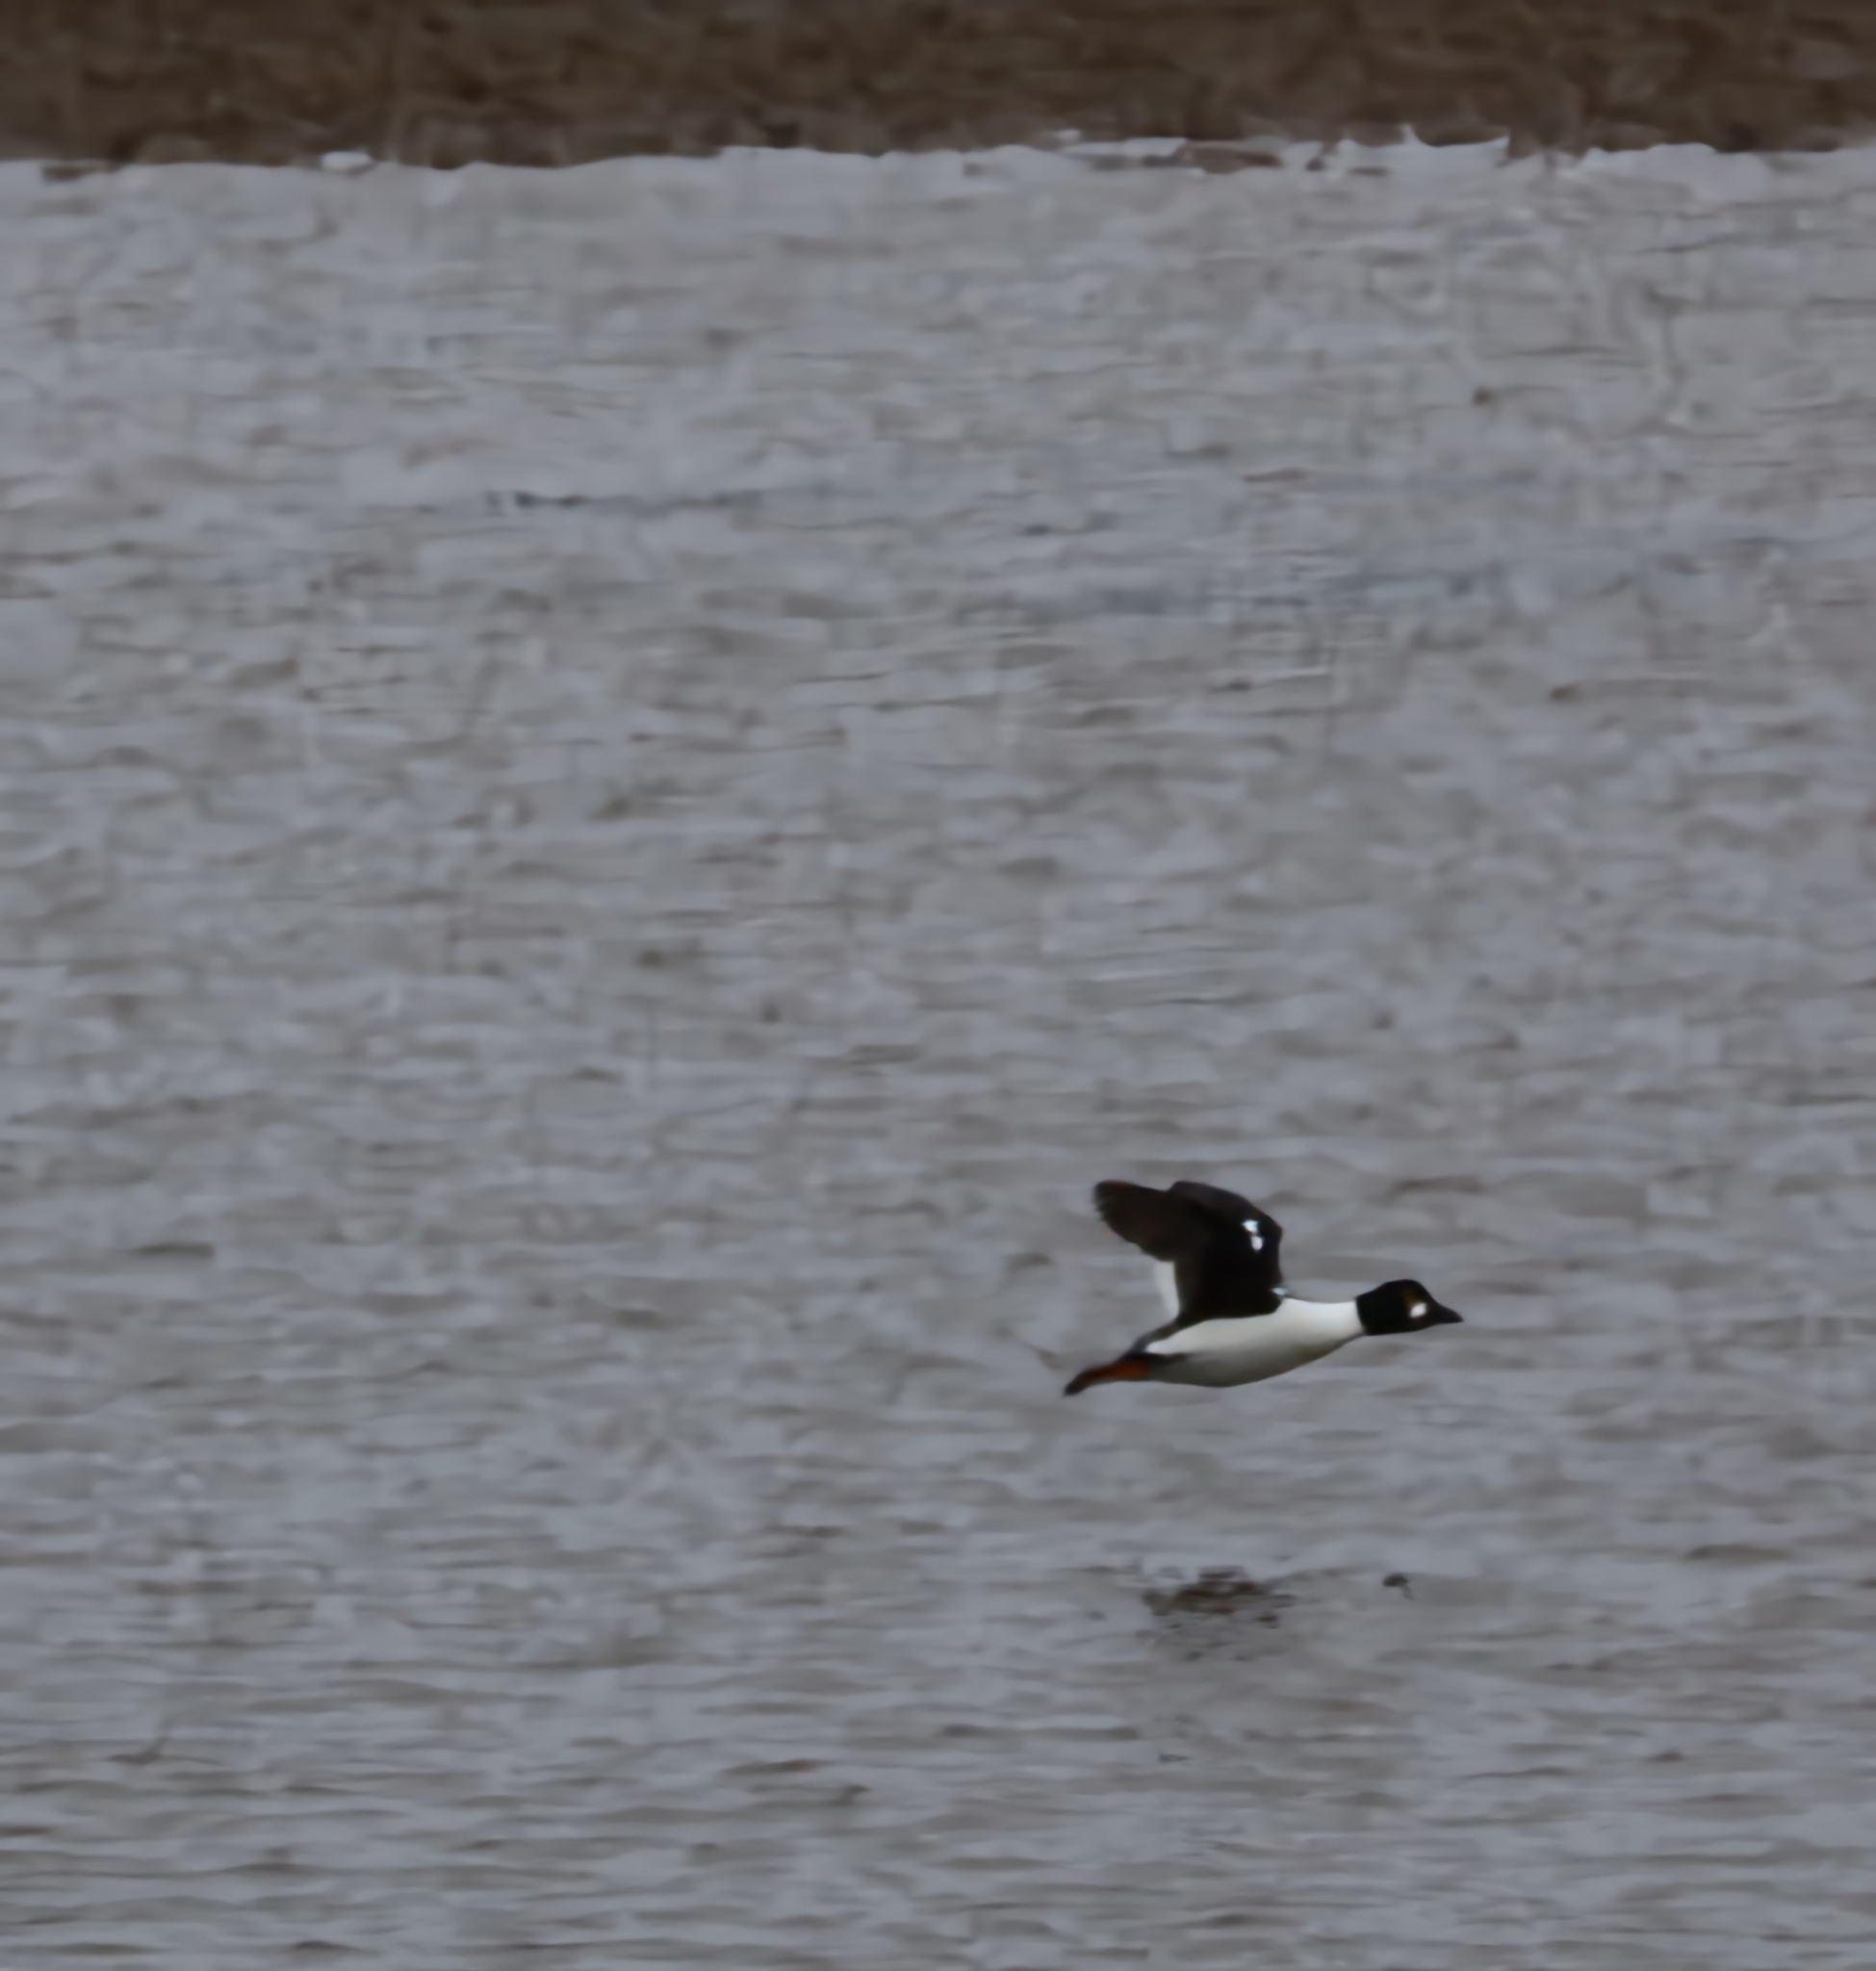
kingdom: Animalia
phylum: Chordata
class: Aves
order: Anseriformes
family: Anatidae
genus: Bucephala
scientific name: Bucephala clangula
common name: Common goldeneye
